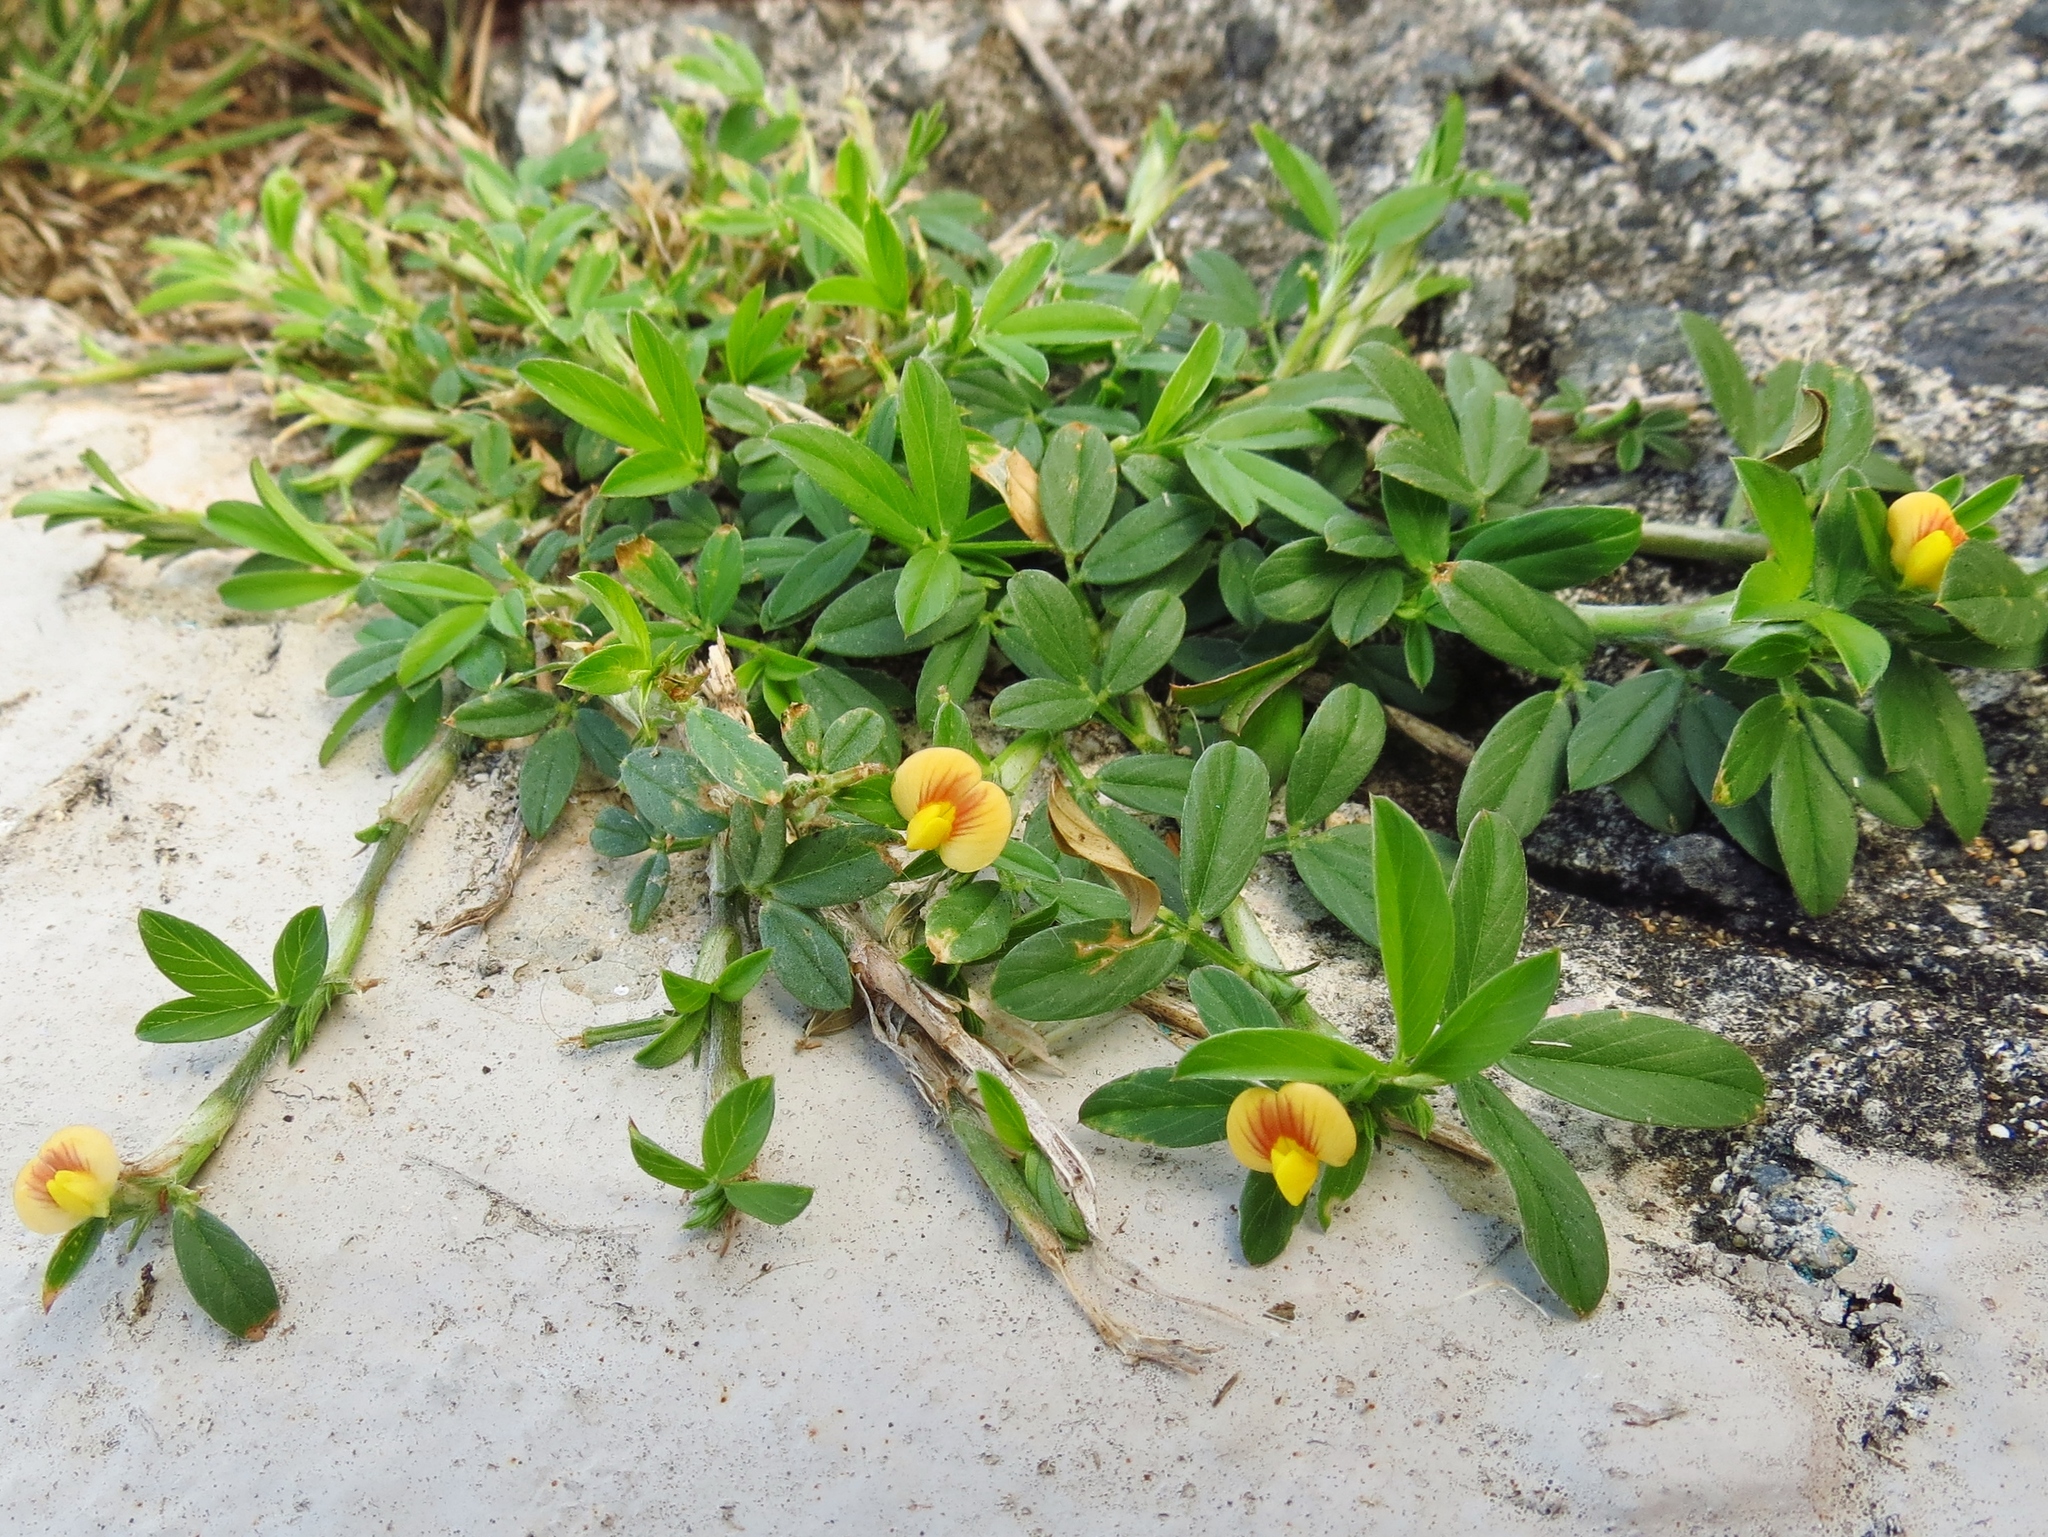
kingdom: Plantae
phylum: Tracheophyta
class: Magnoliopsida
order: Fabales
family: Fabaceae
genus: Stylosanthes
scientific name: Stylosanthes hamata
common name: Cheesytoes
